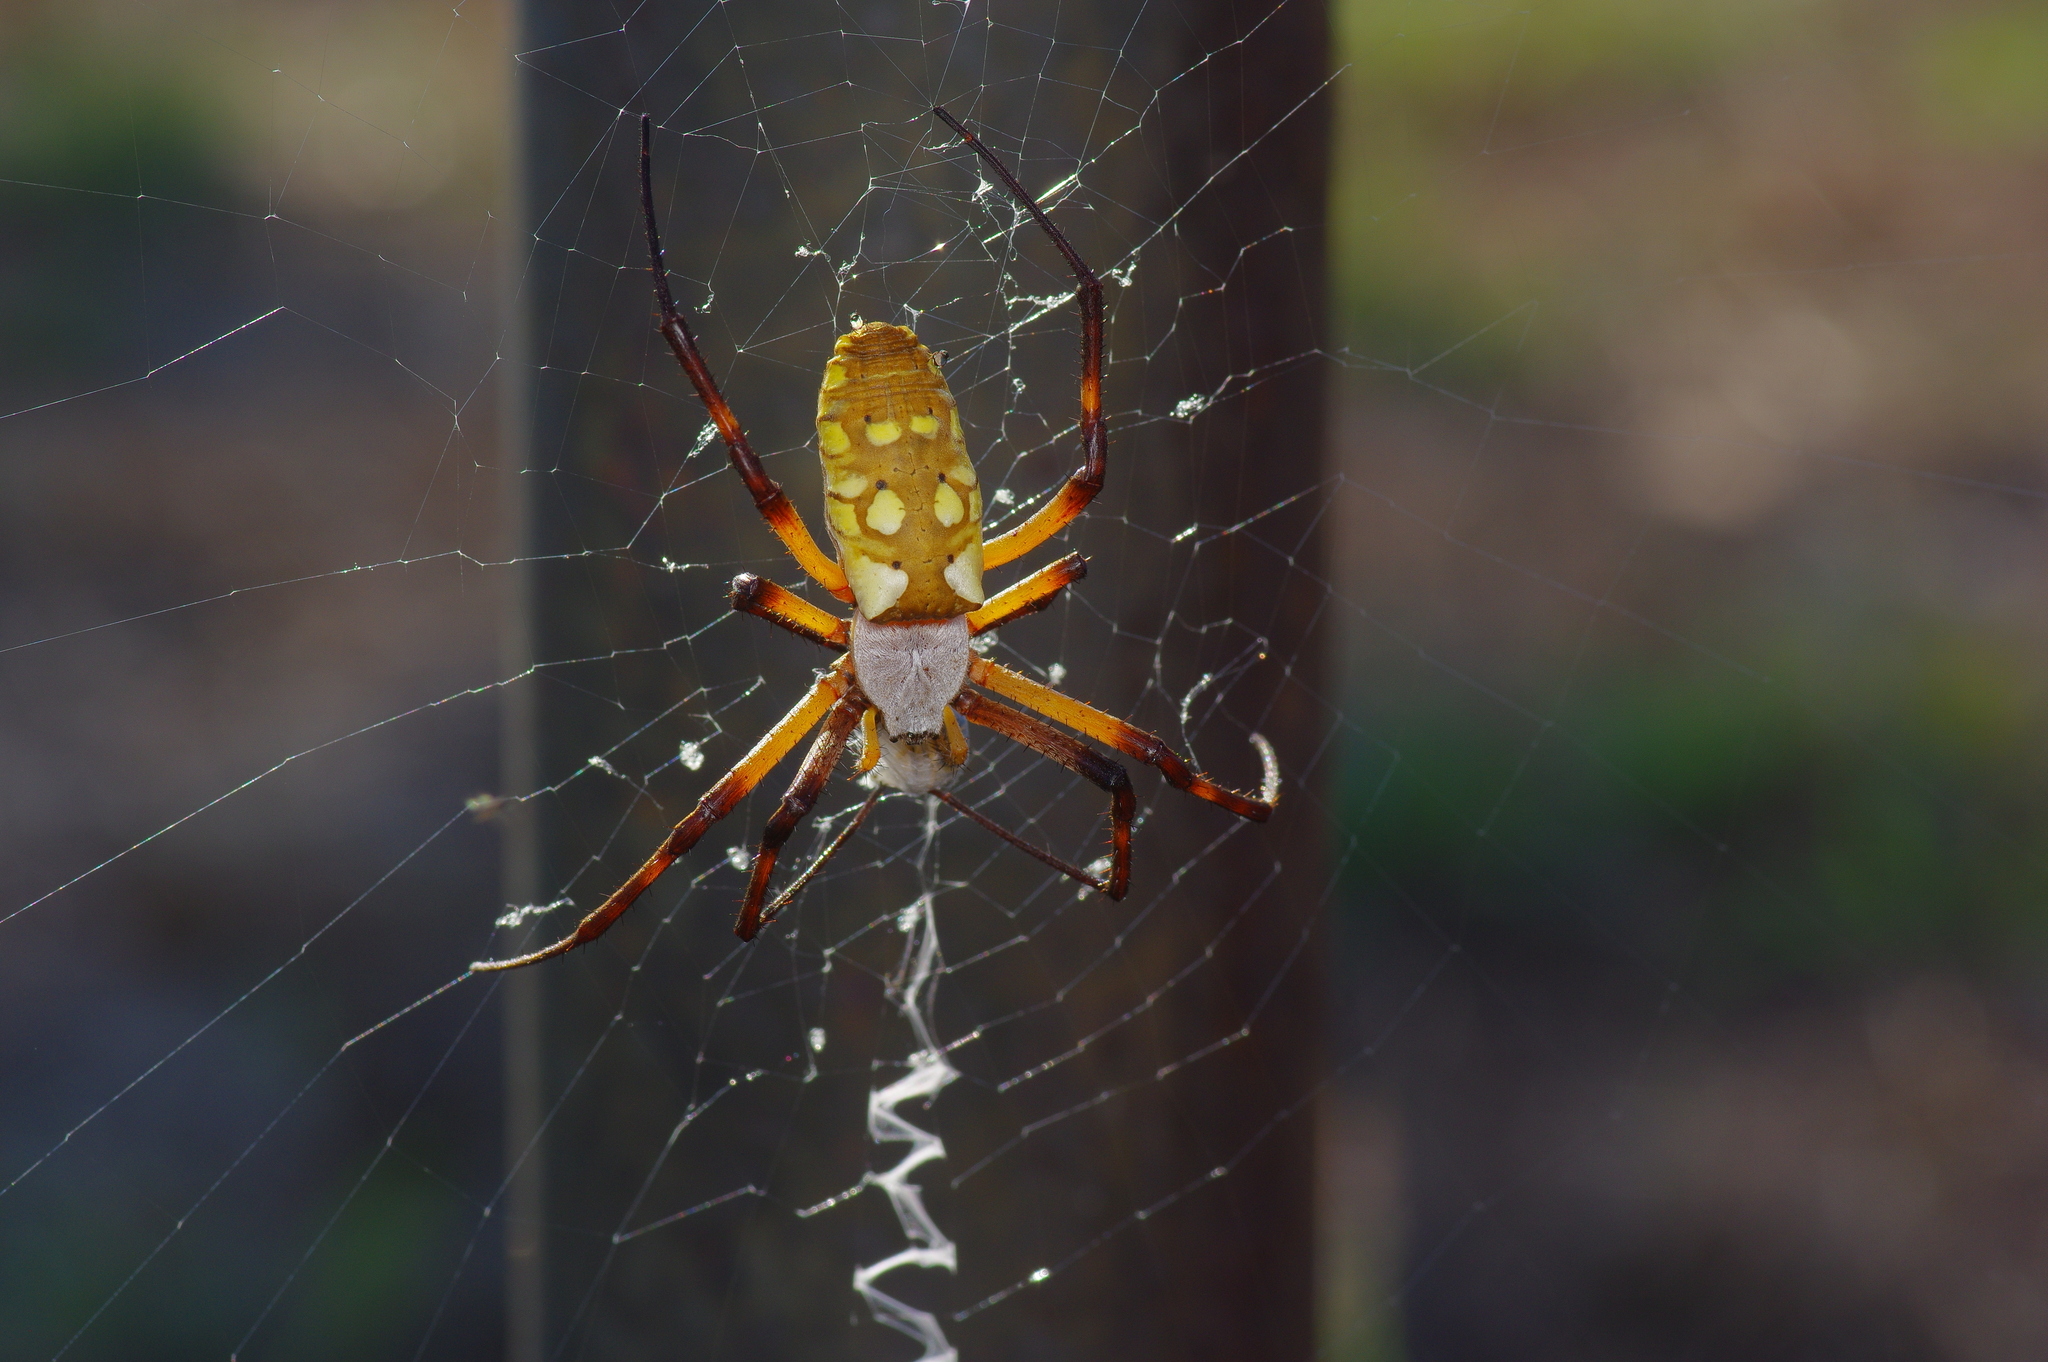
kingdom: Animalia
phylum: Arthropoda
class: Arachnida
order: Araneae
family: Araneidae
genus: Argiope
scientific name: Argiope aurantia
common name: Orb weavers
